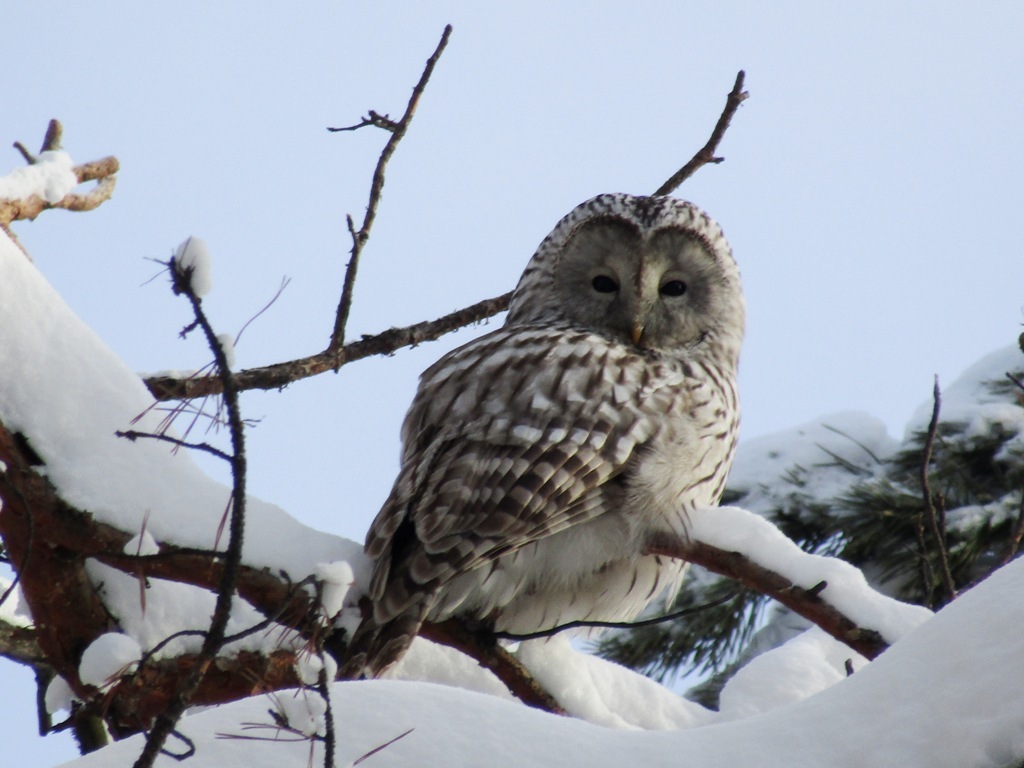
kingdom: Animalia
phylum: Chordata
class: Aves
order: Strigiformes
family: Strigidae
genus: Strix
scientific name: Strix uralensis
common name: Ural owl
